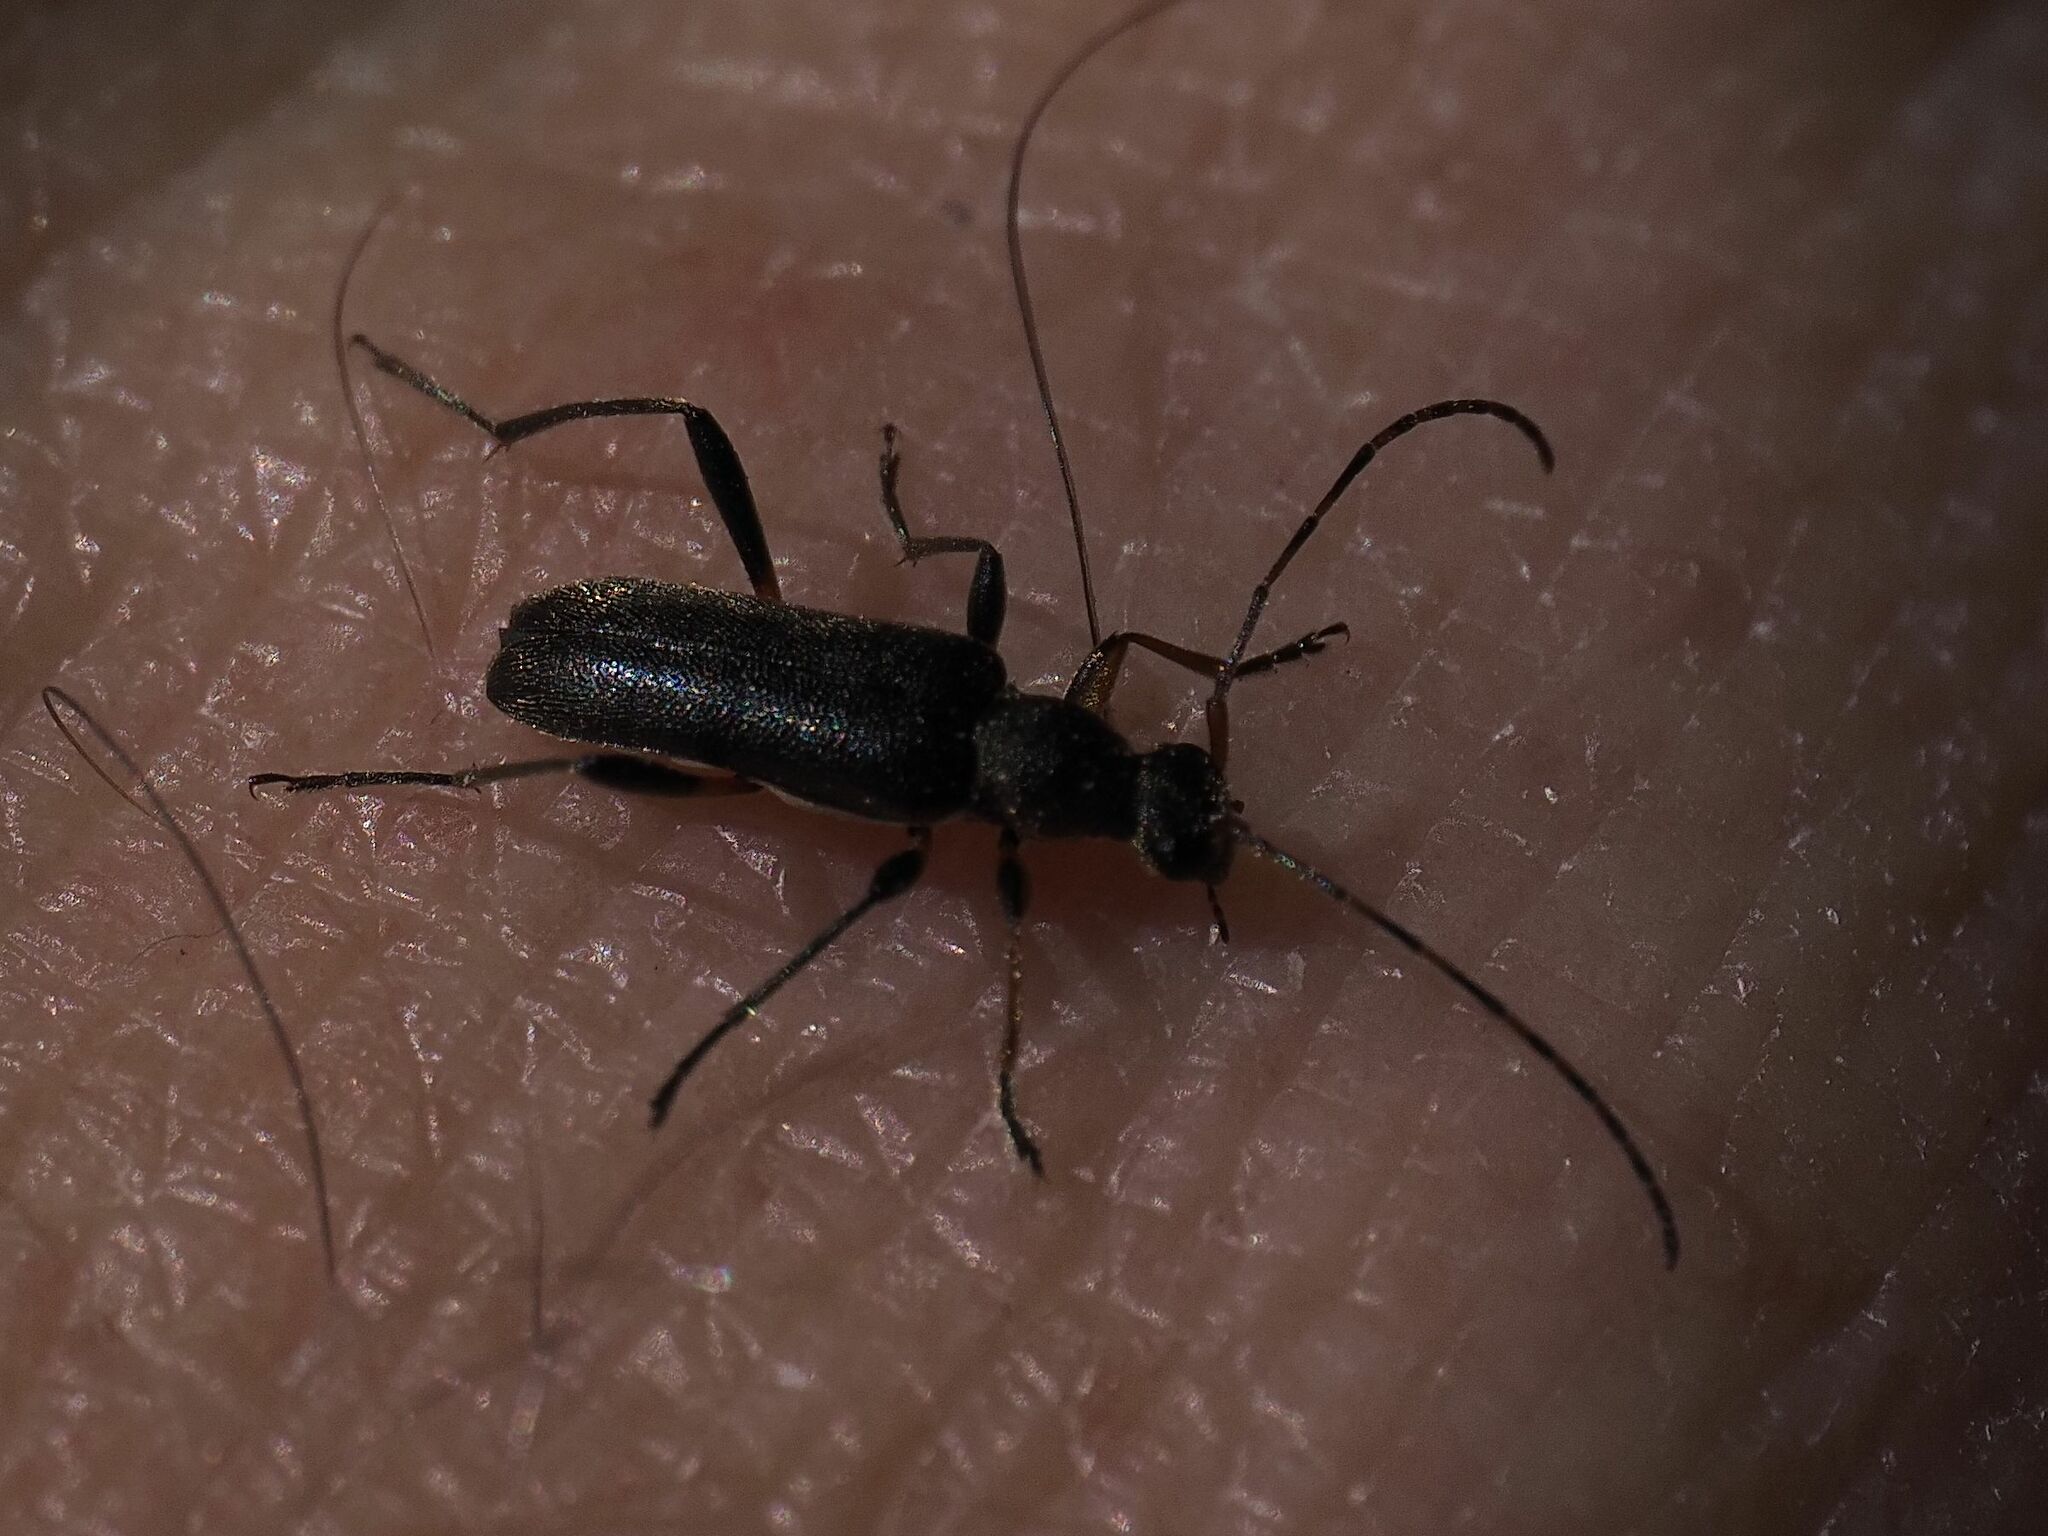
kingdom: Animalia
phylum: Arthropoda
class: Insecta
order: Coleoptera
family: Cerambycidae
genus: Grammoptera
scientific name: Grammoptera ruficornis
